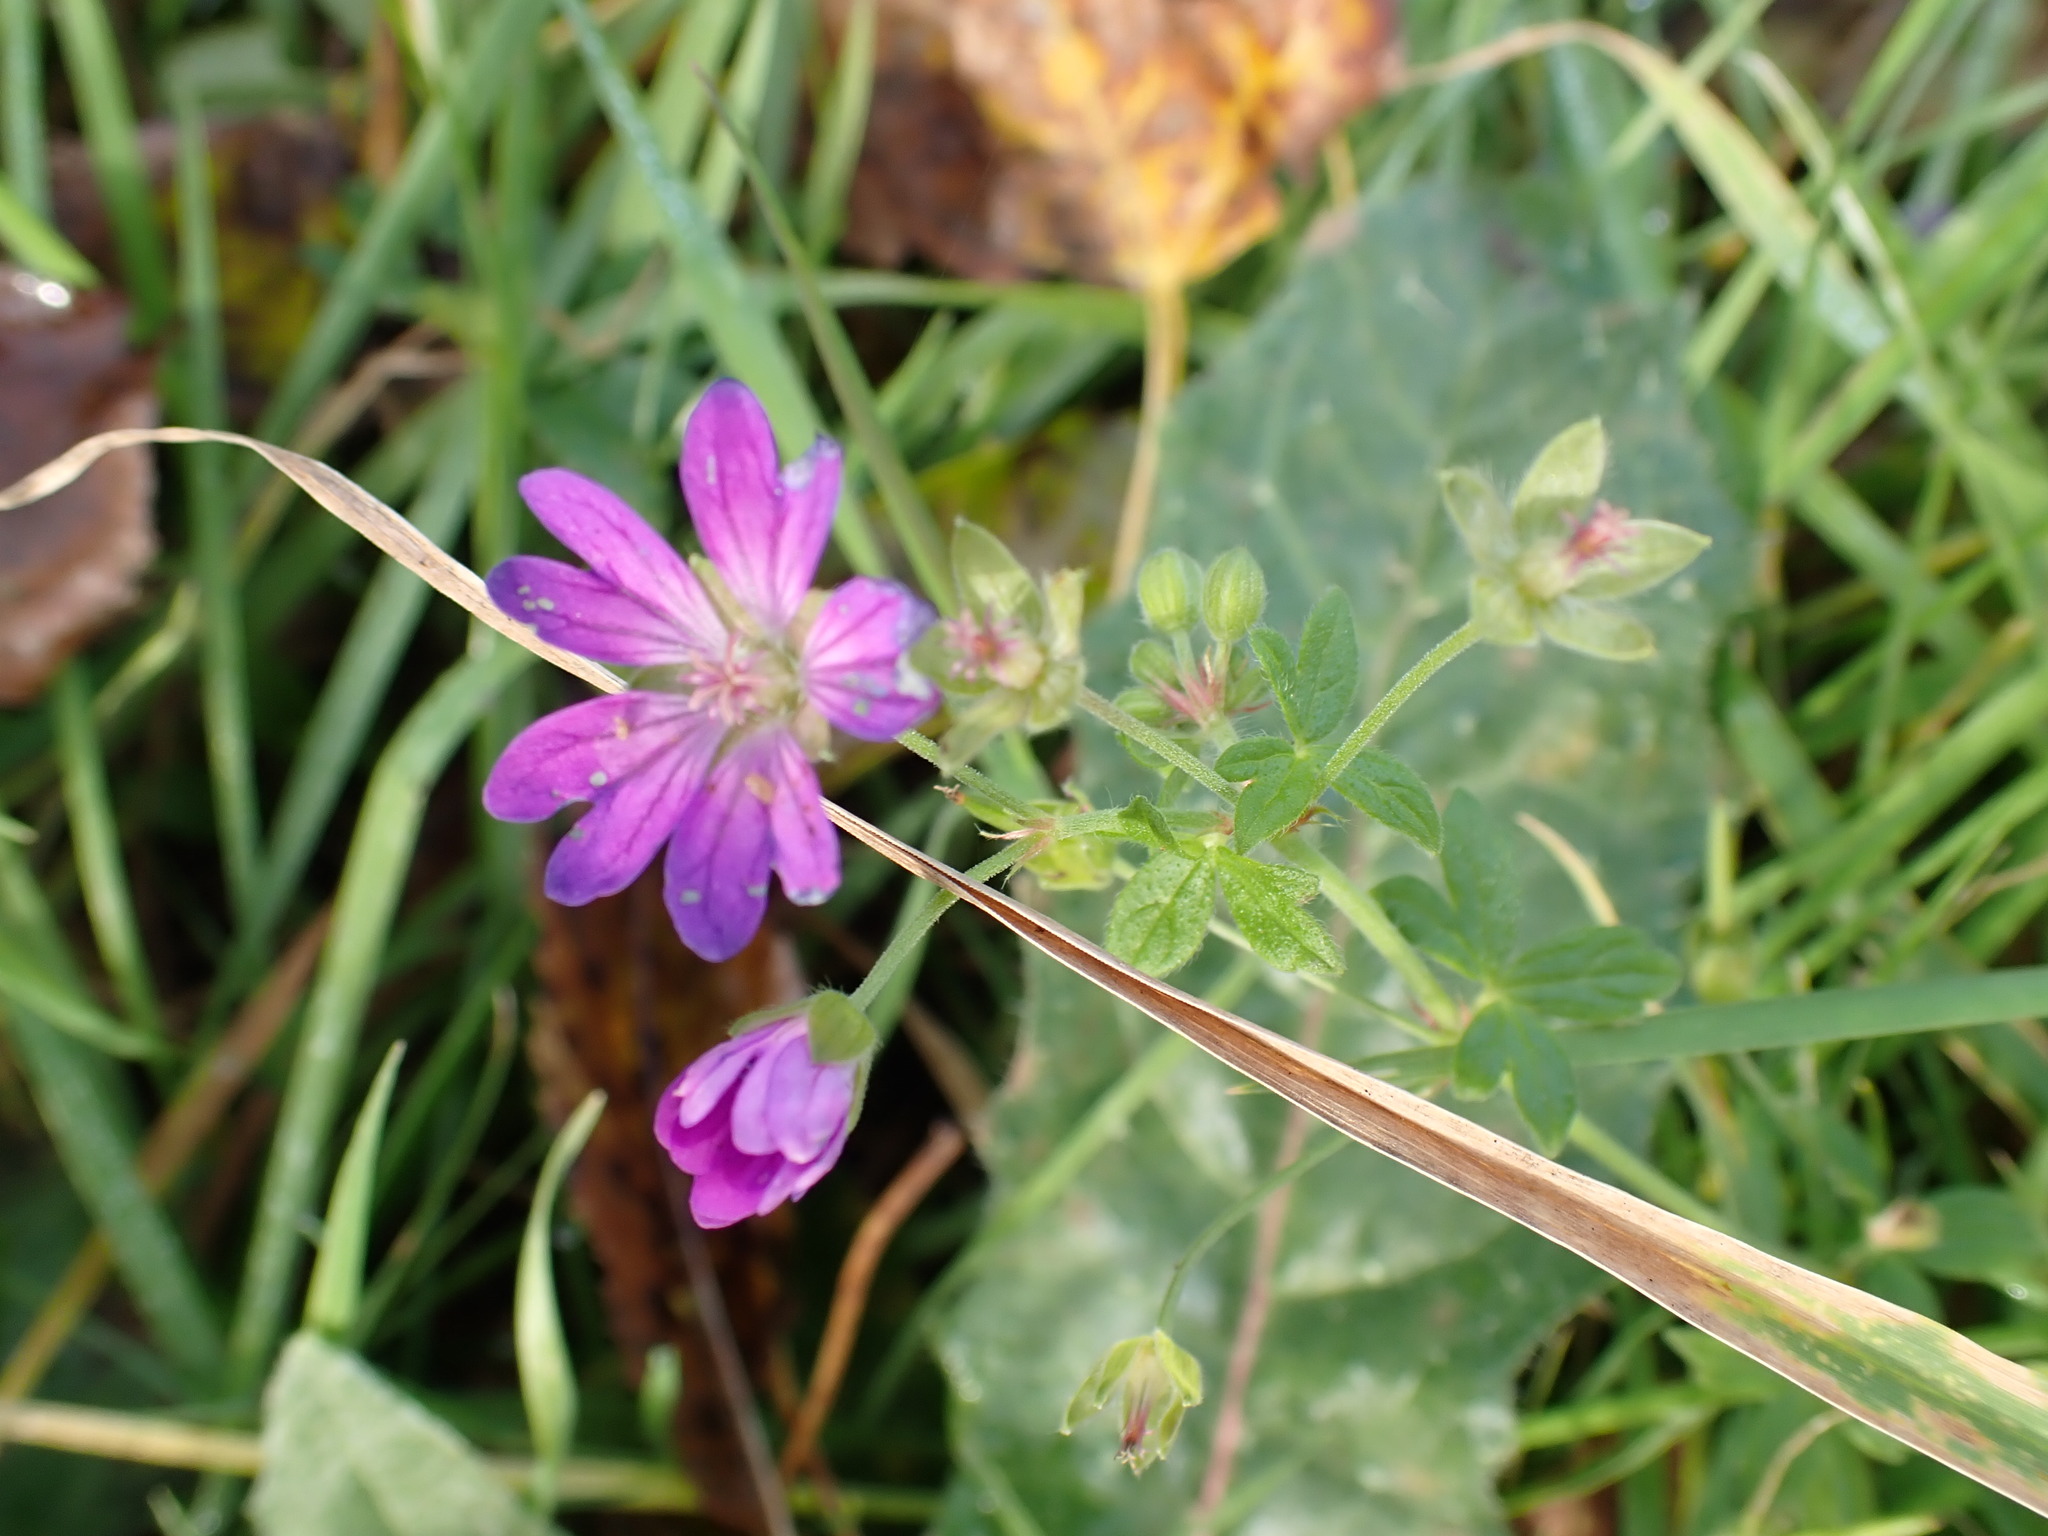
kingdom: Plantae
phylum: Tracheophyta
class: Magnoliopsida
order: Geraniales
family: Geraniaceae
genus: Geranium
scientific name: Geranium pyrenaicum
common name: Hedgerow crane's-bill
